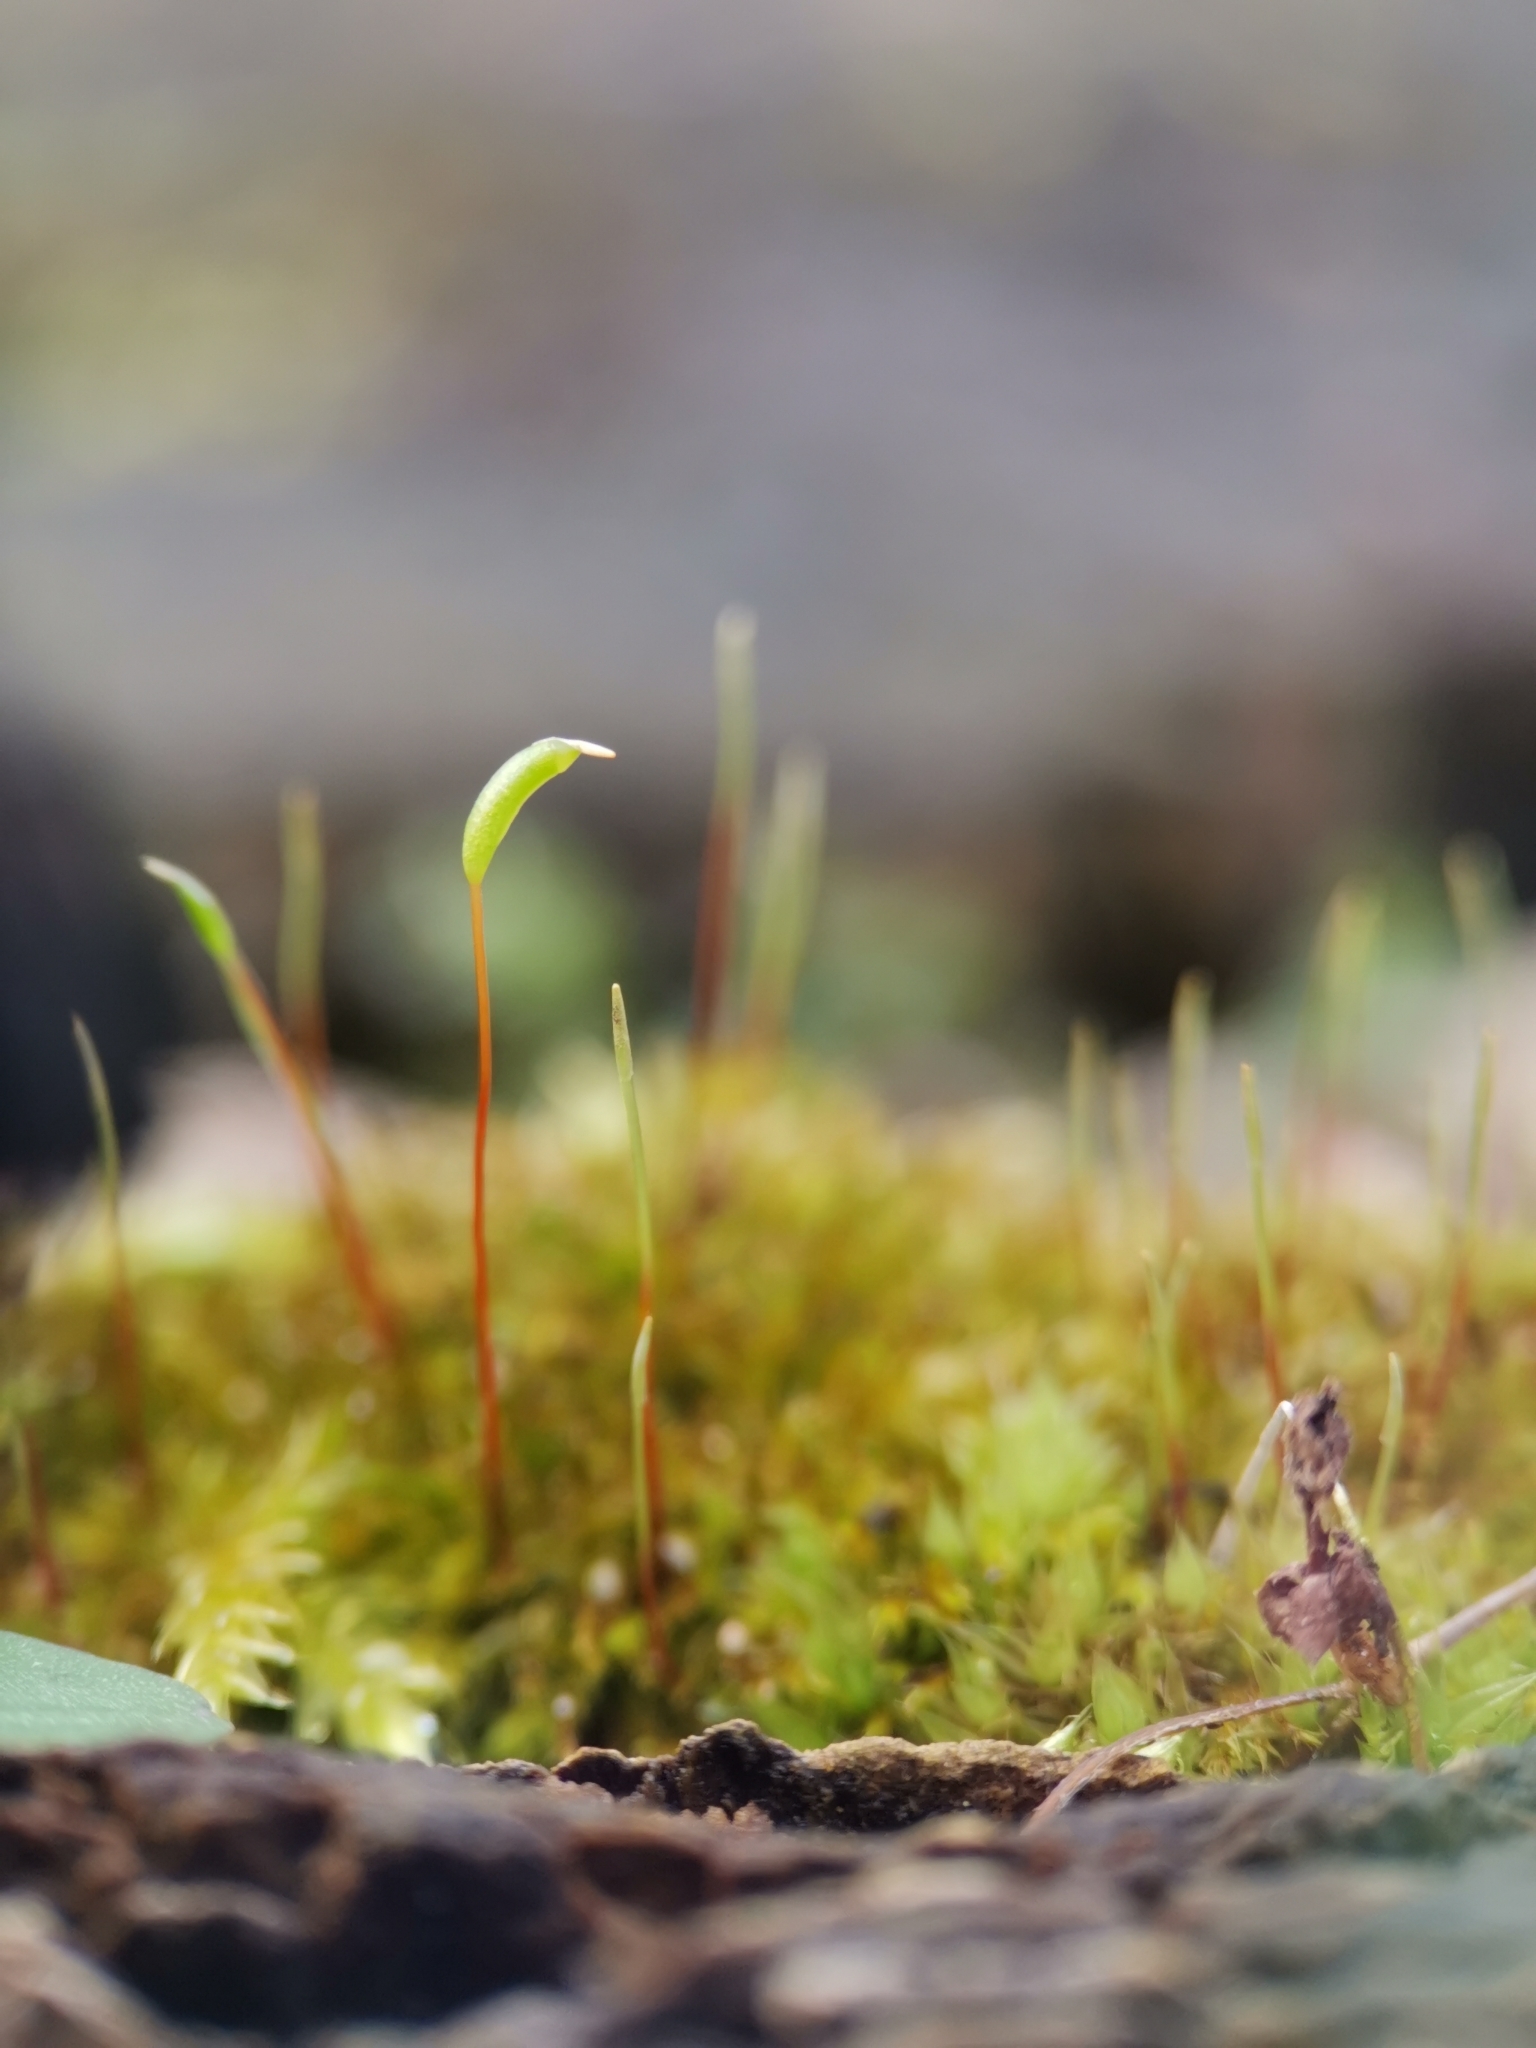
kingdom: Plantae
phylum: Bryophyta
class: Bryopsida
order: Hypnales
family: Amblystegiaceae
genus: Amblystegium
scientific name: Amblystegium serpens
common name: Jurkatzka's feather moss
